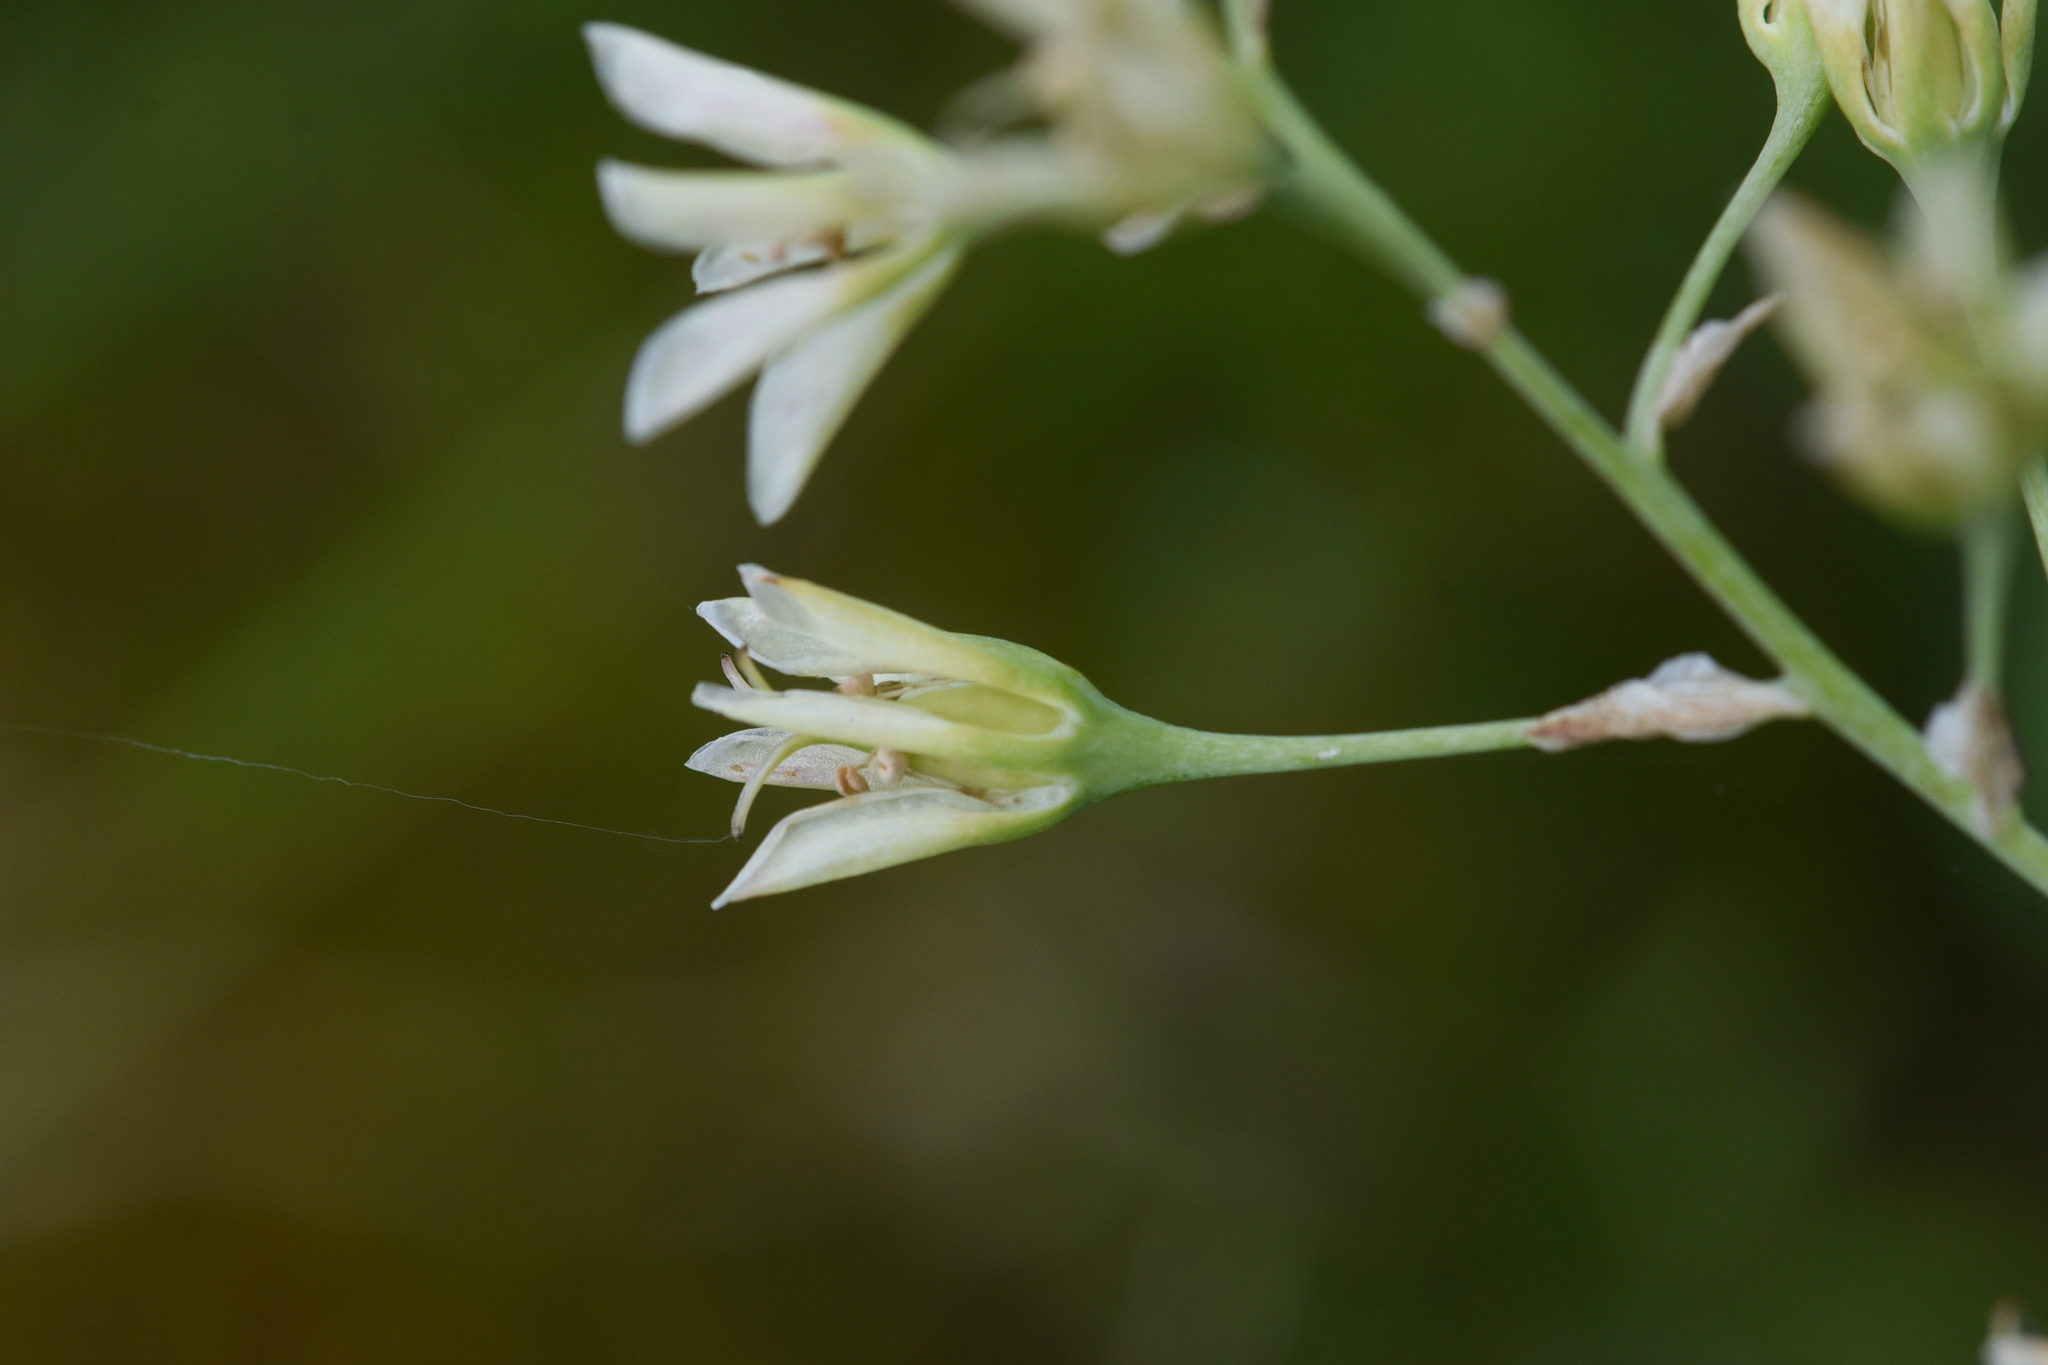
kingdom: Plantae
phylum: Tracheophyta
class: Liliopsida
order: Liliales
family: Melanthiaceae
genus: Anticlea
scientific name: Anticlea elegans
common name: Mountain death camas
